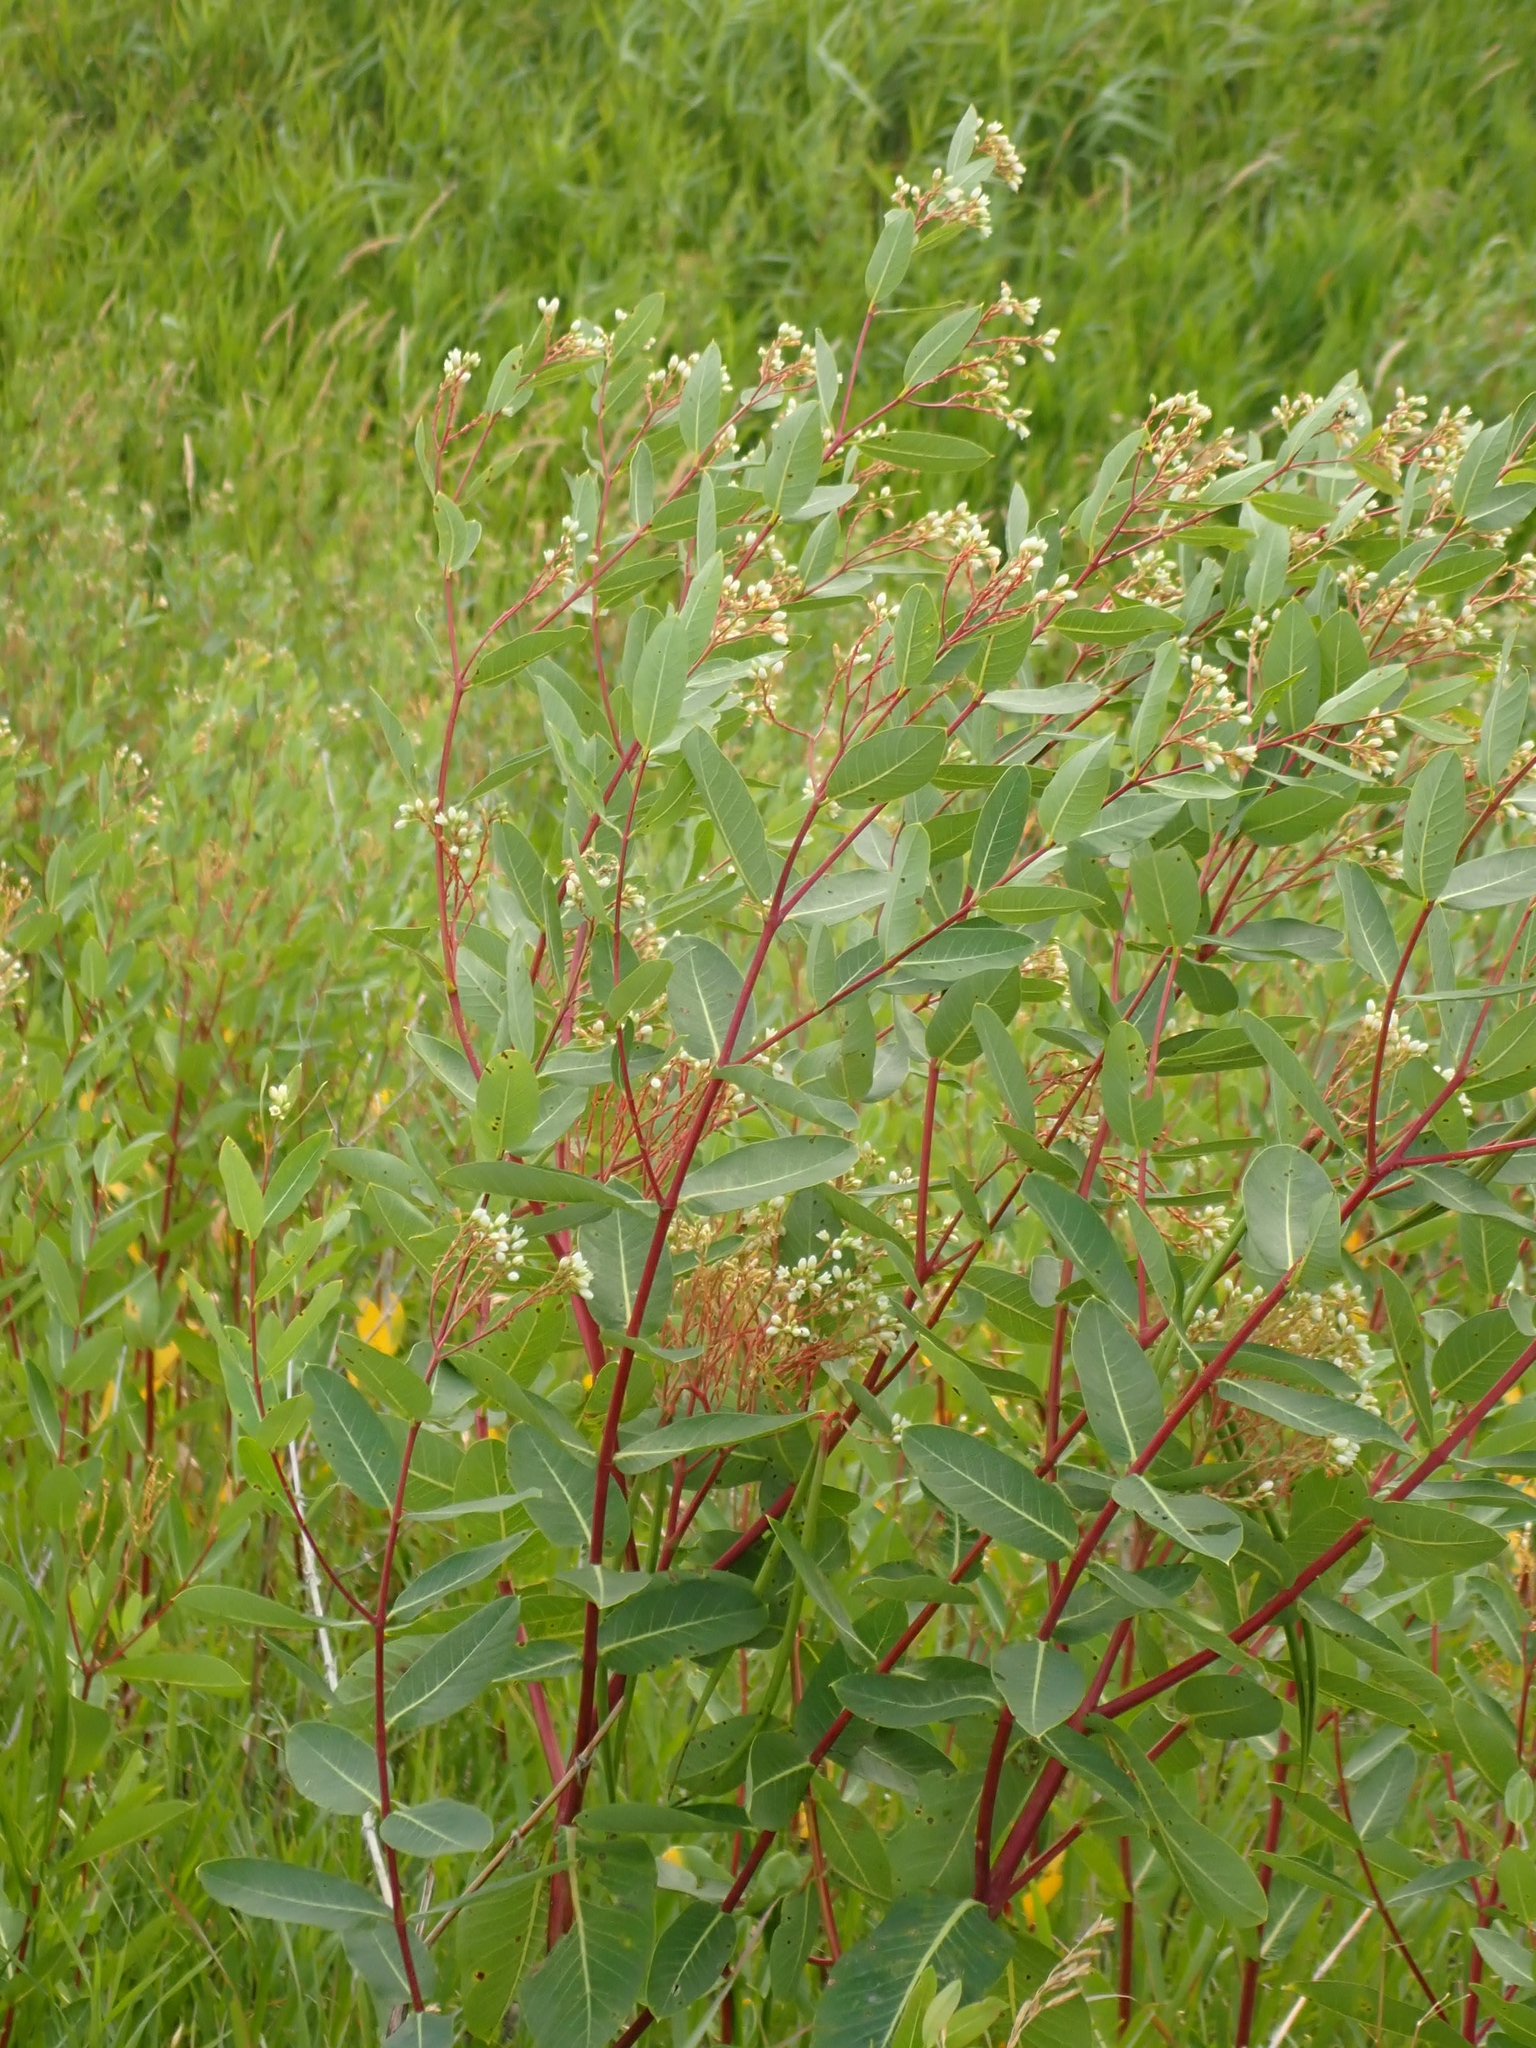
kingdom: Plantae
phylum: Tracheophyta
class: Magnoliopsida
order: Gentianales
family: Apocynaceae
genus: Apocynum
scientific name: Apocynum cannabinum
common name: Hemp dogbane
